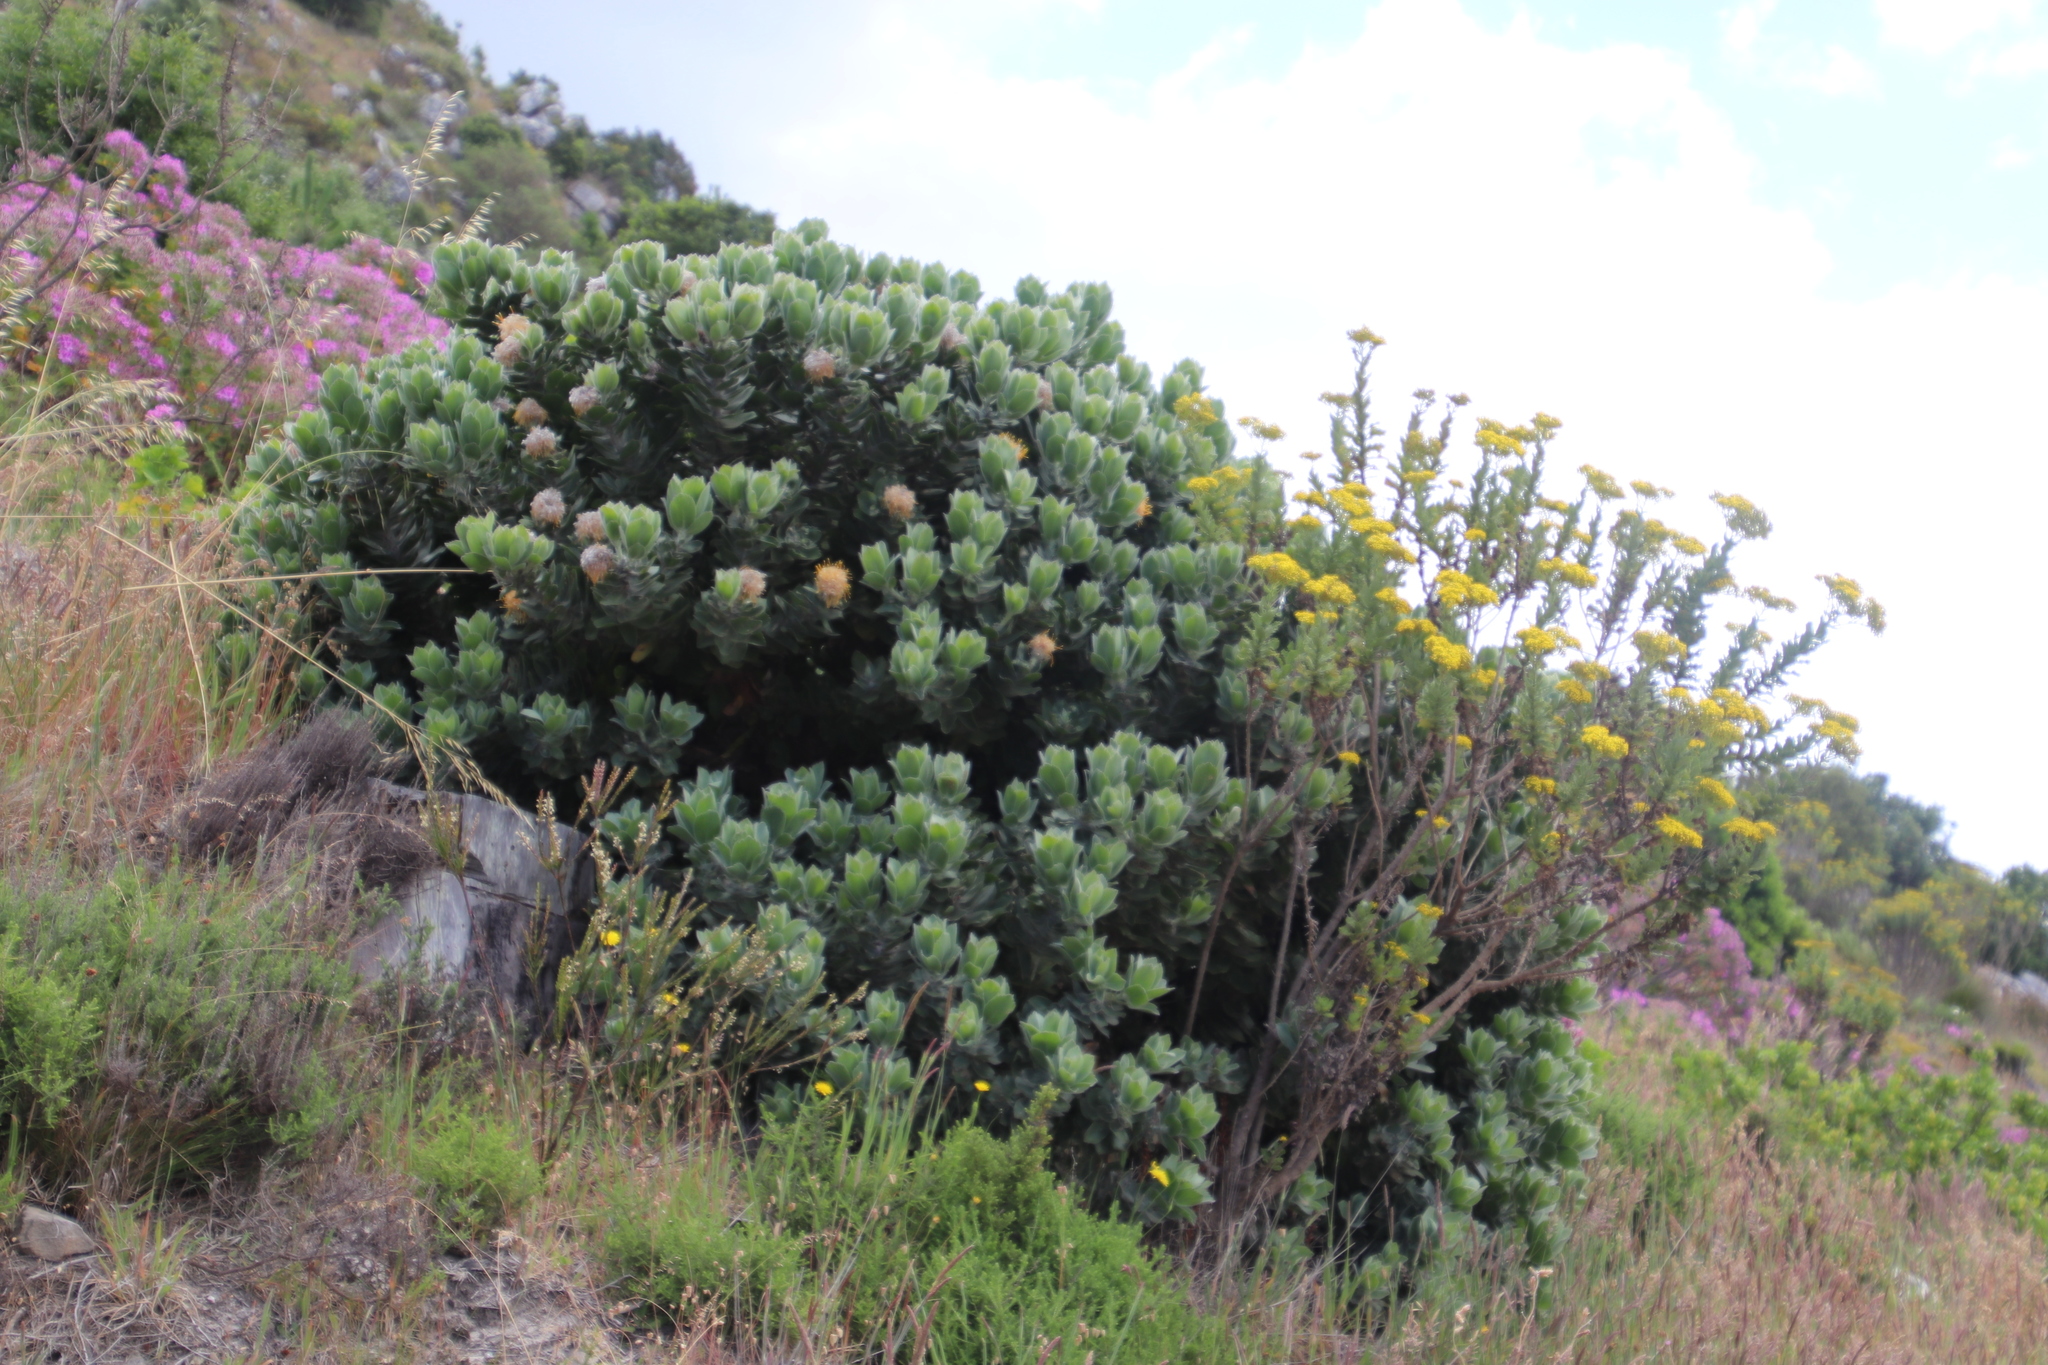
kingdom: Plantae
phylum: Tracheophyta
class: Magnoliopsida
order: Proteales
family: Proteaceae
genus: Leucospermum
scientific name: Leucospermum conocarpodendron
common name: Tree pincushion
